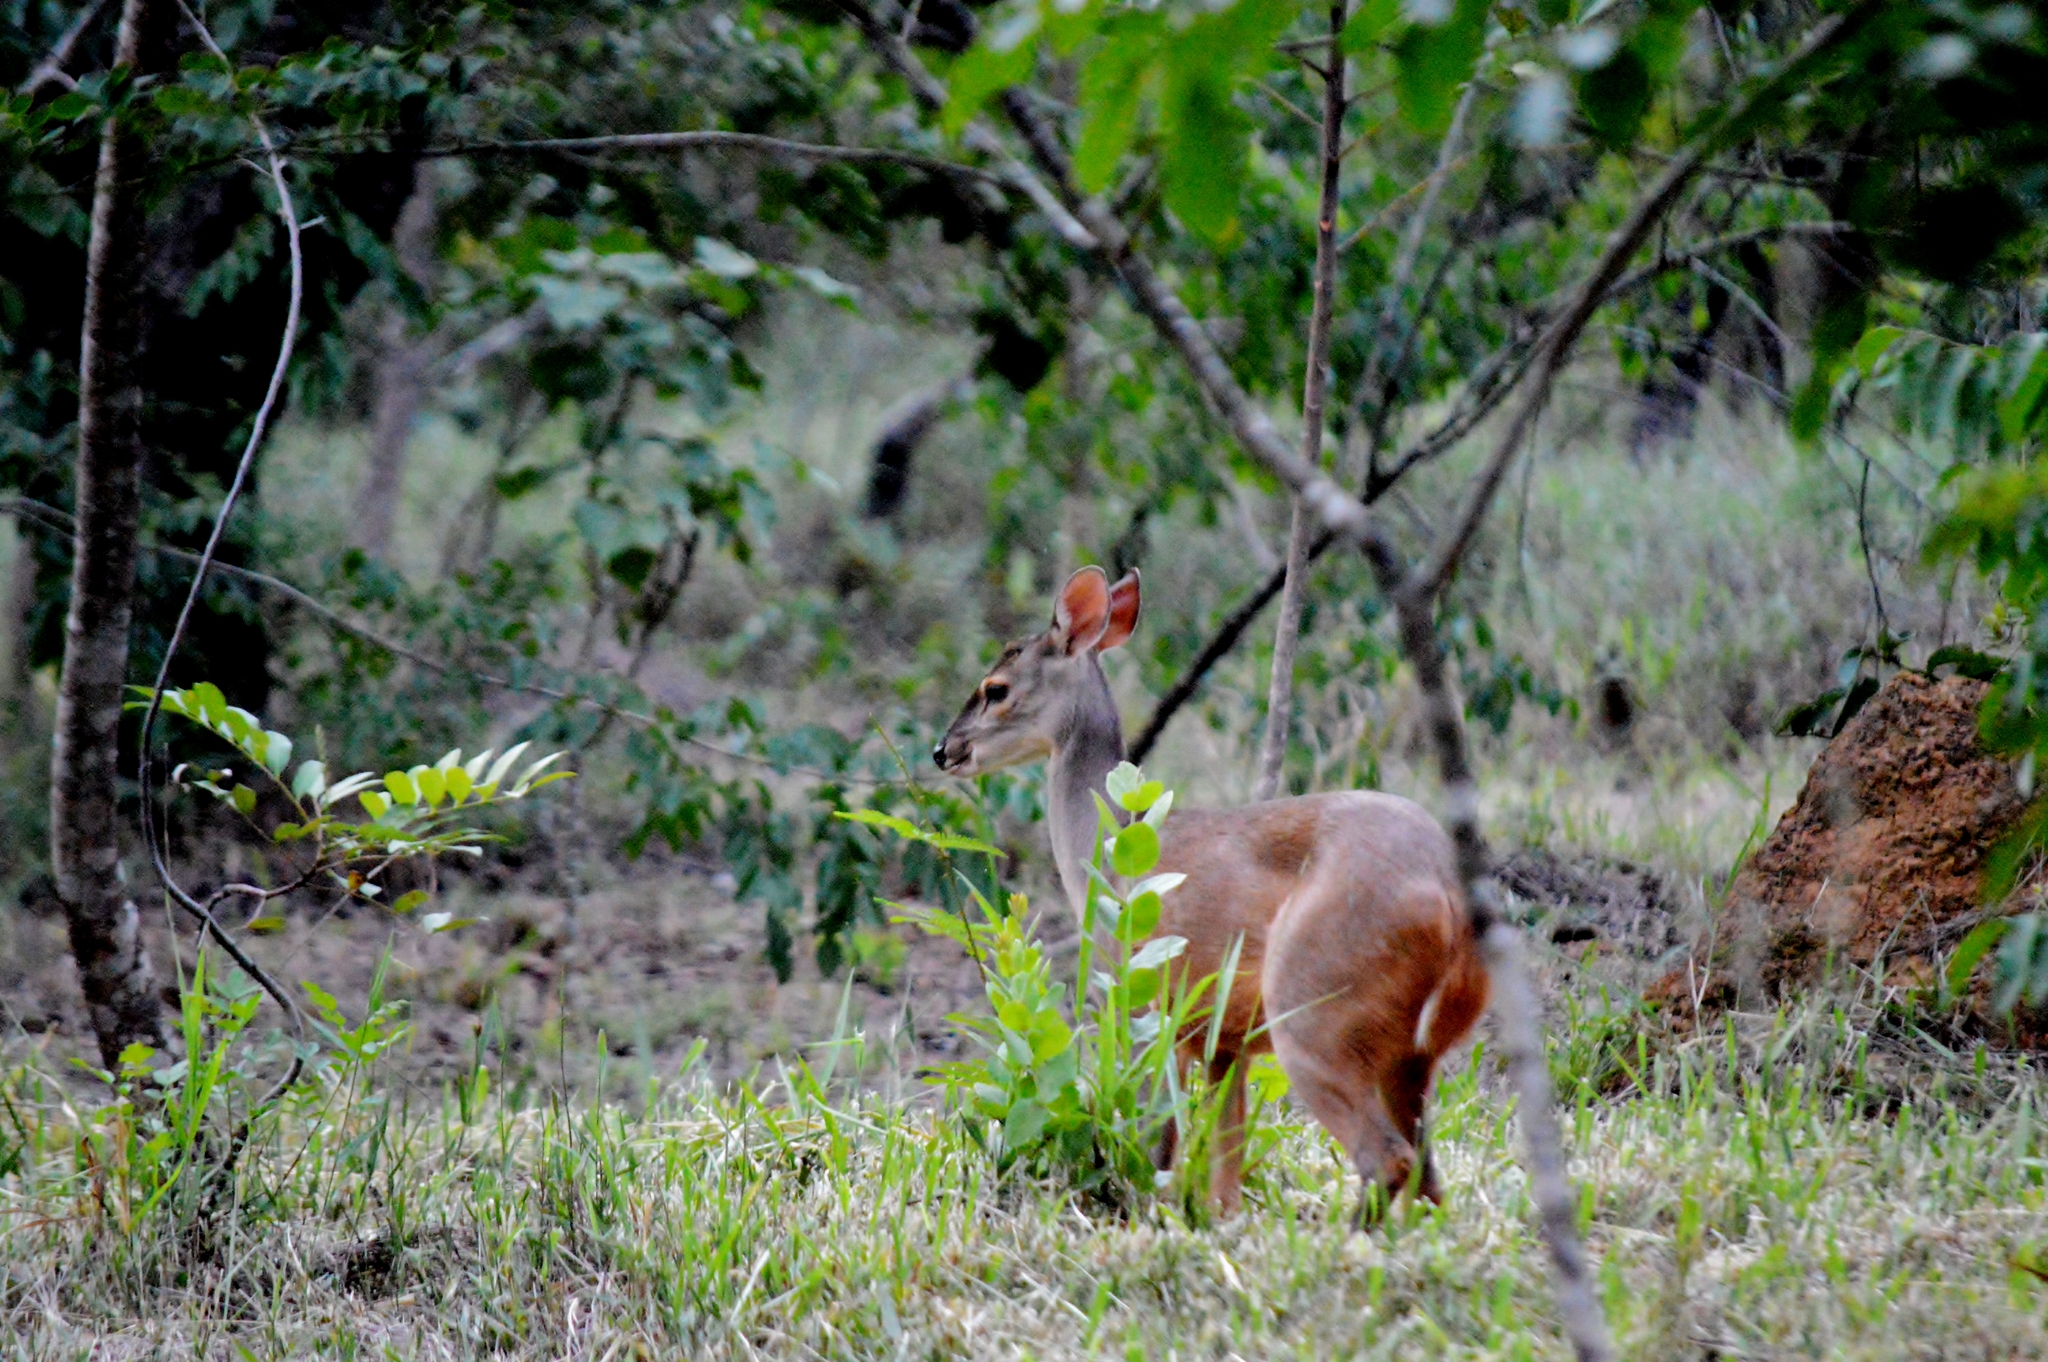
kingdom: Animalia
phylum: Chordata
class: Mammalia
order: Artiodactyla
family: Cervidae
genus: Mazama
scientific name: Mazama gouazoubira
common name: Gray brocket
